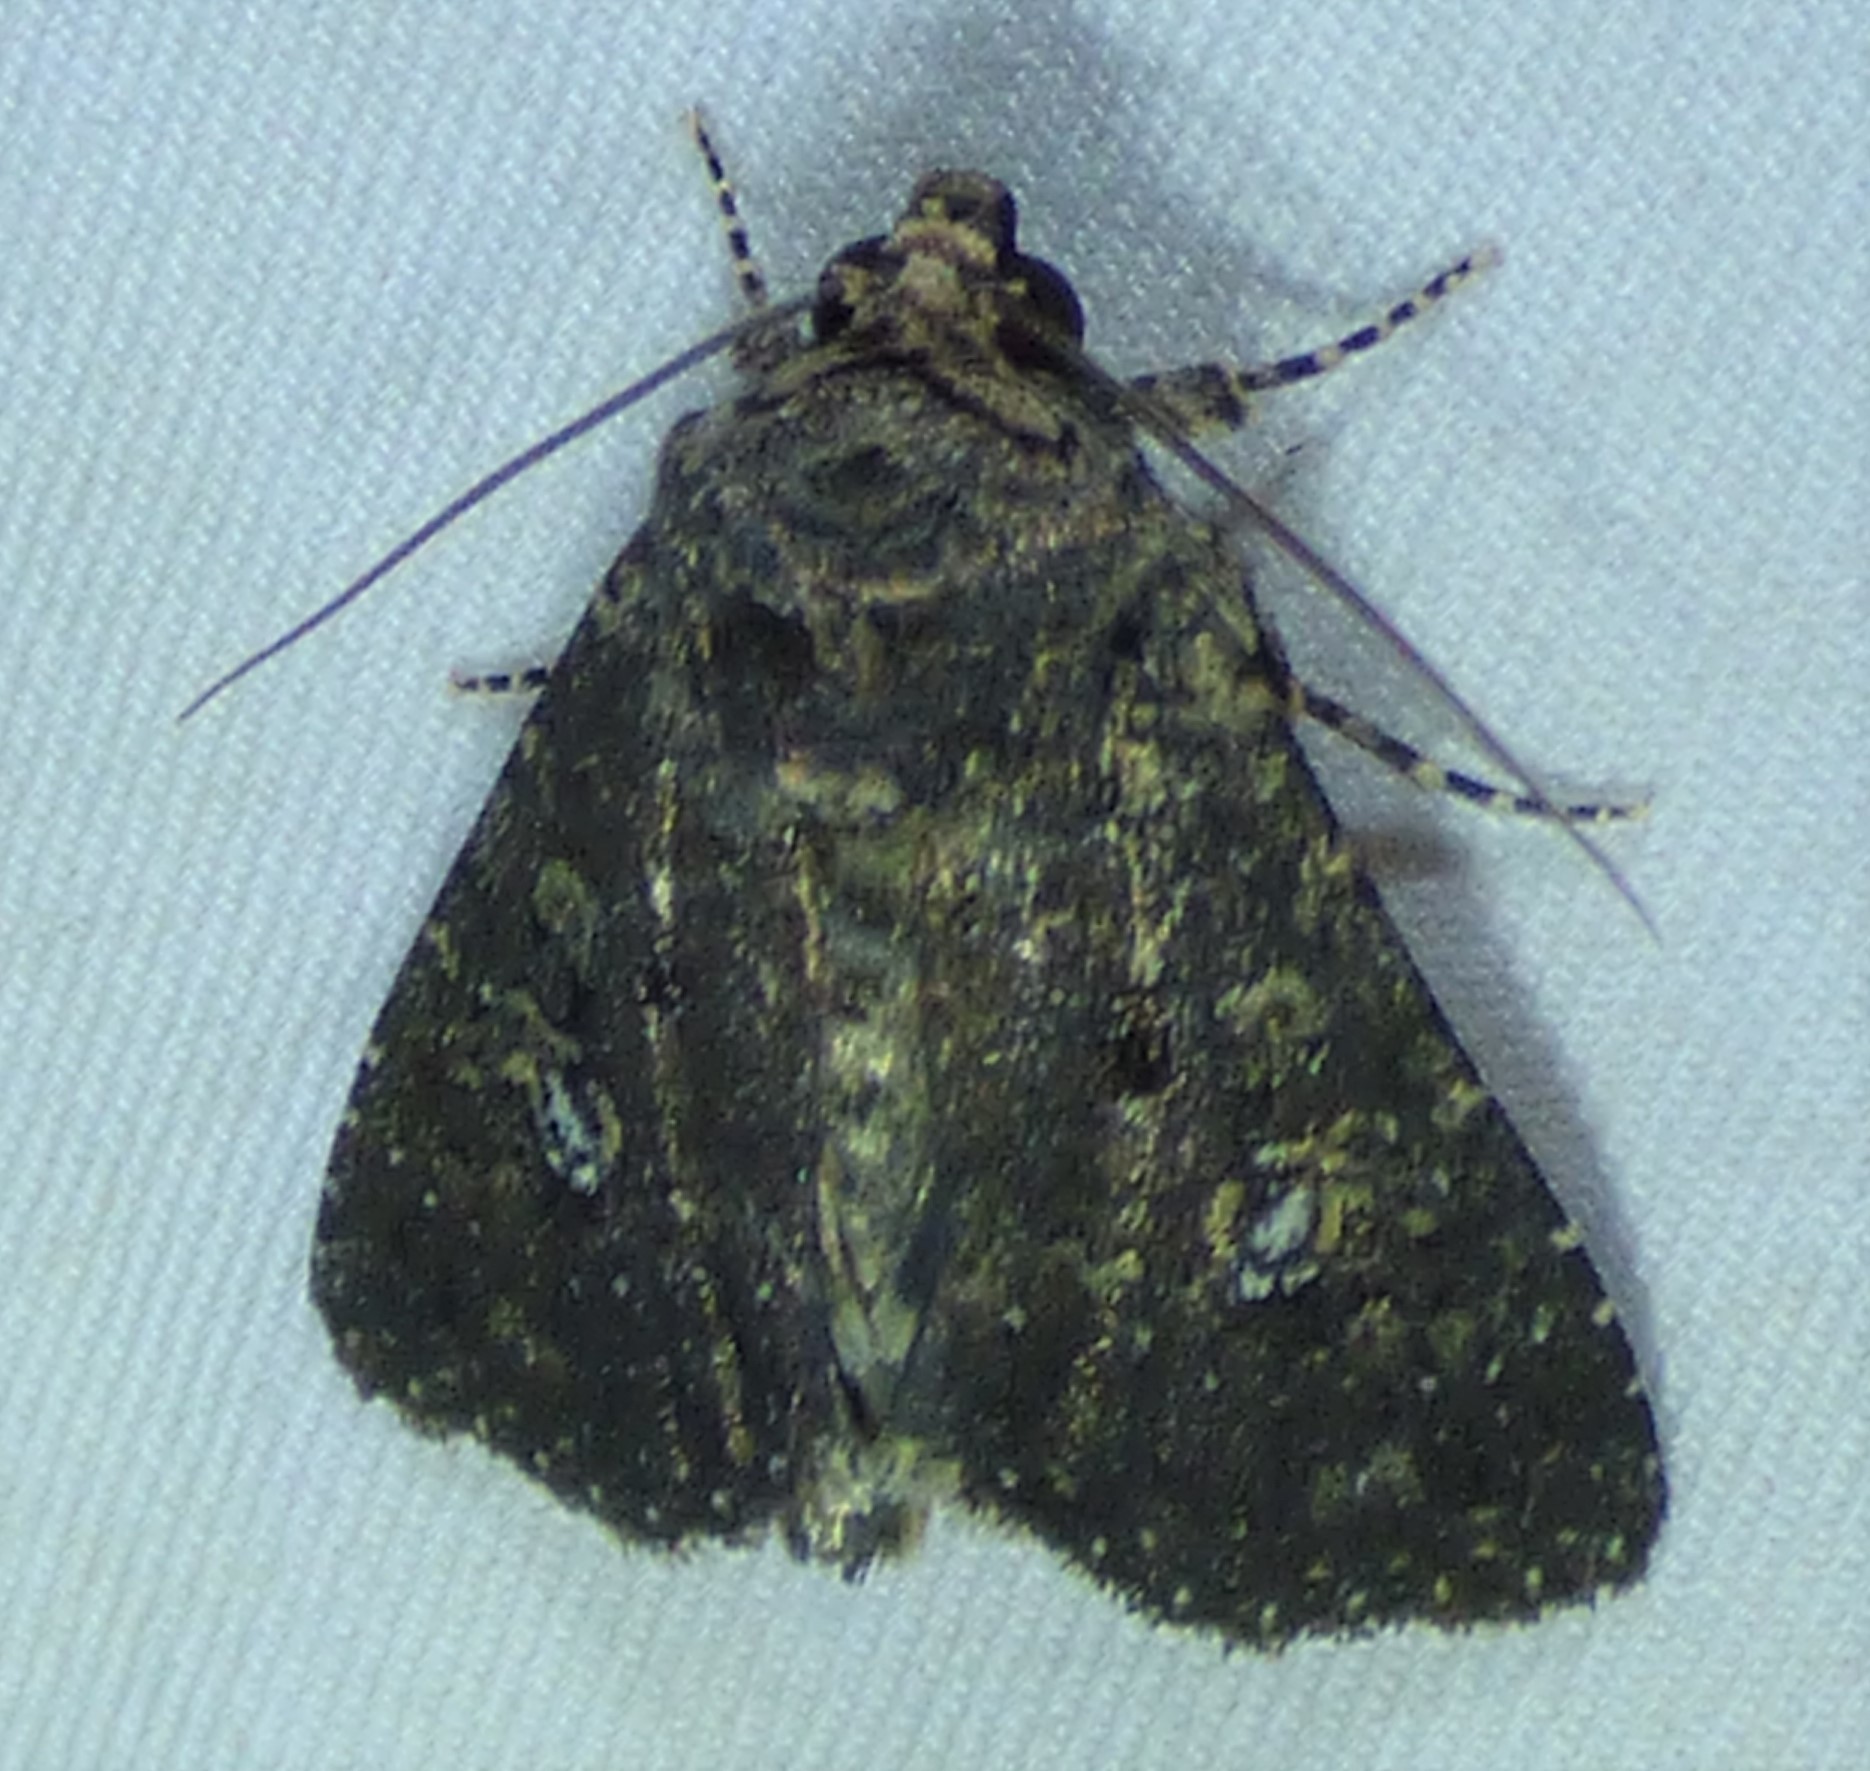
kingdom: Animalia
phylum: Arthropoda
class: Insecta
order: Lepidoptera
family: Noctuidae
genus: Condica
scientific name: Condica vecors
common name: Dusky groundling
